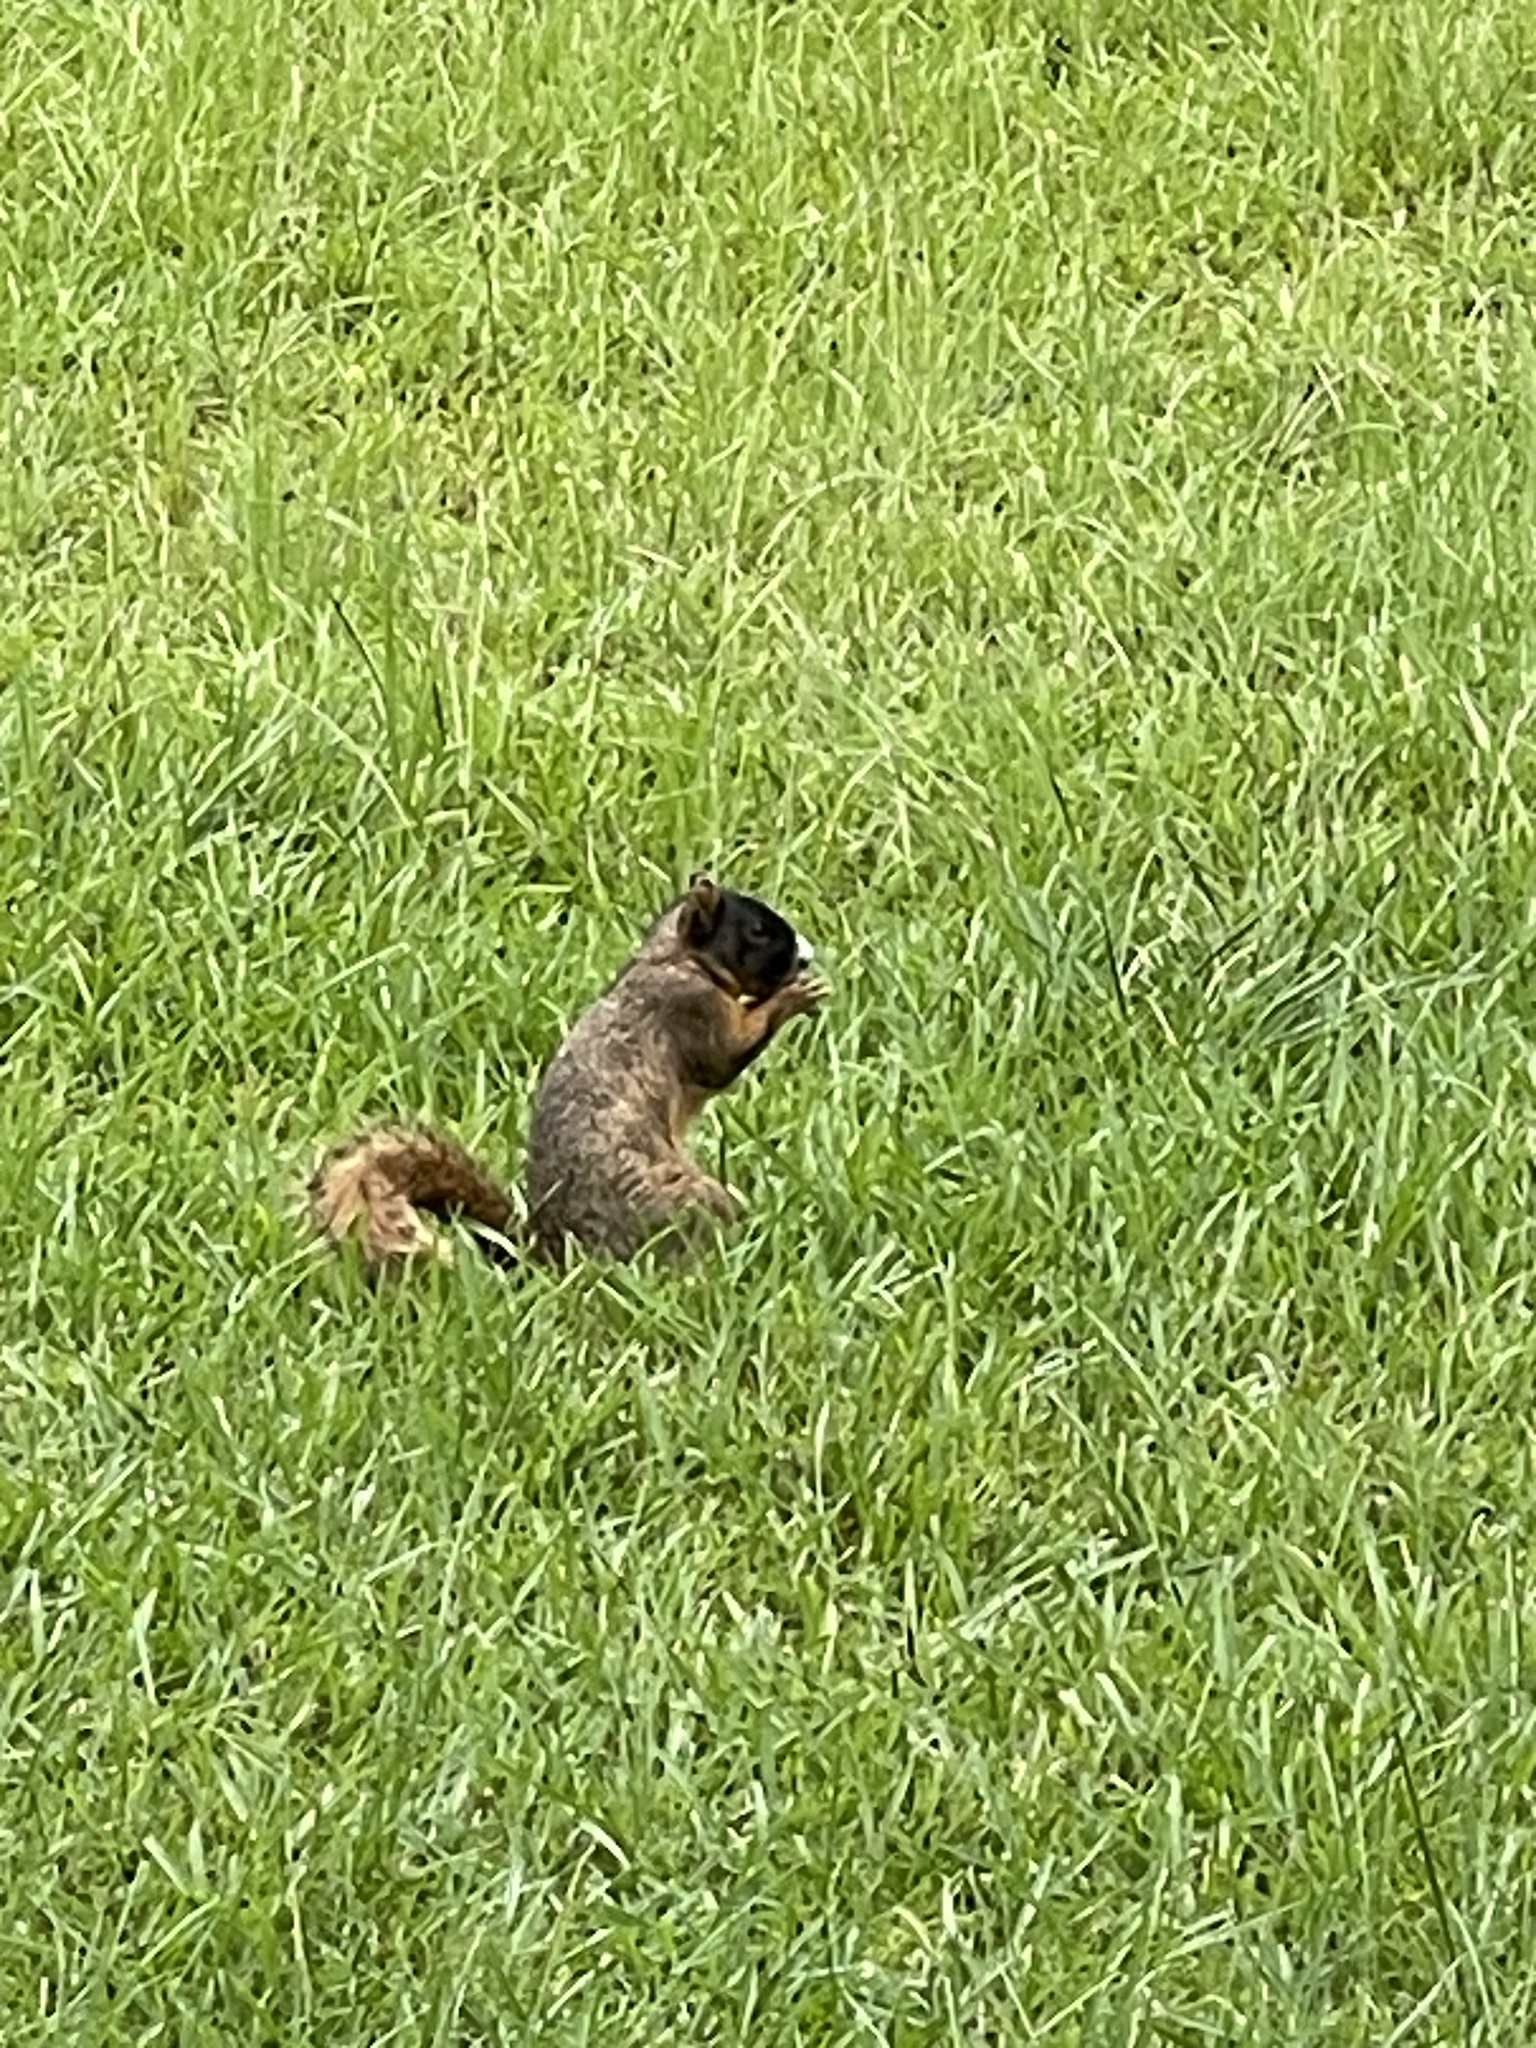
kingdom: Animalia
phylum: Chordata
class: Mammalia
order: Rodentia
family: Sciuridae
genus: Sciurus
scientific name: Sciurus niger
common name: Fox squirrel
